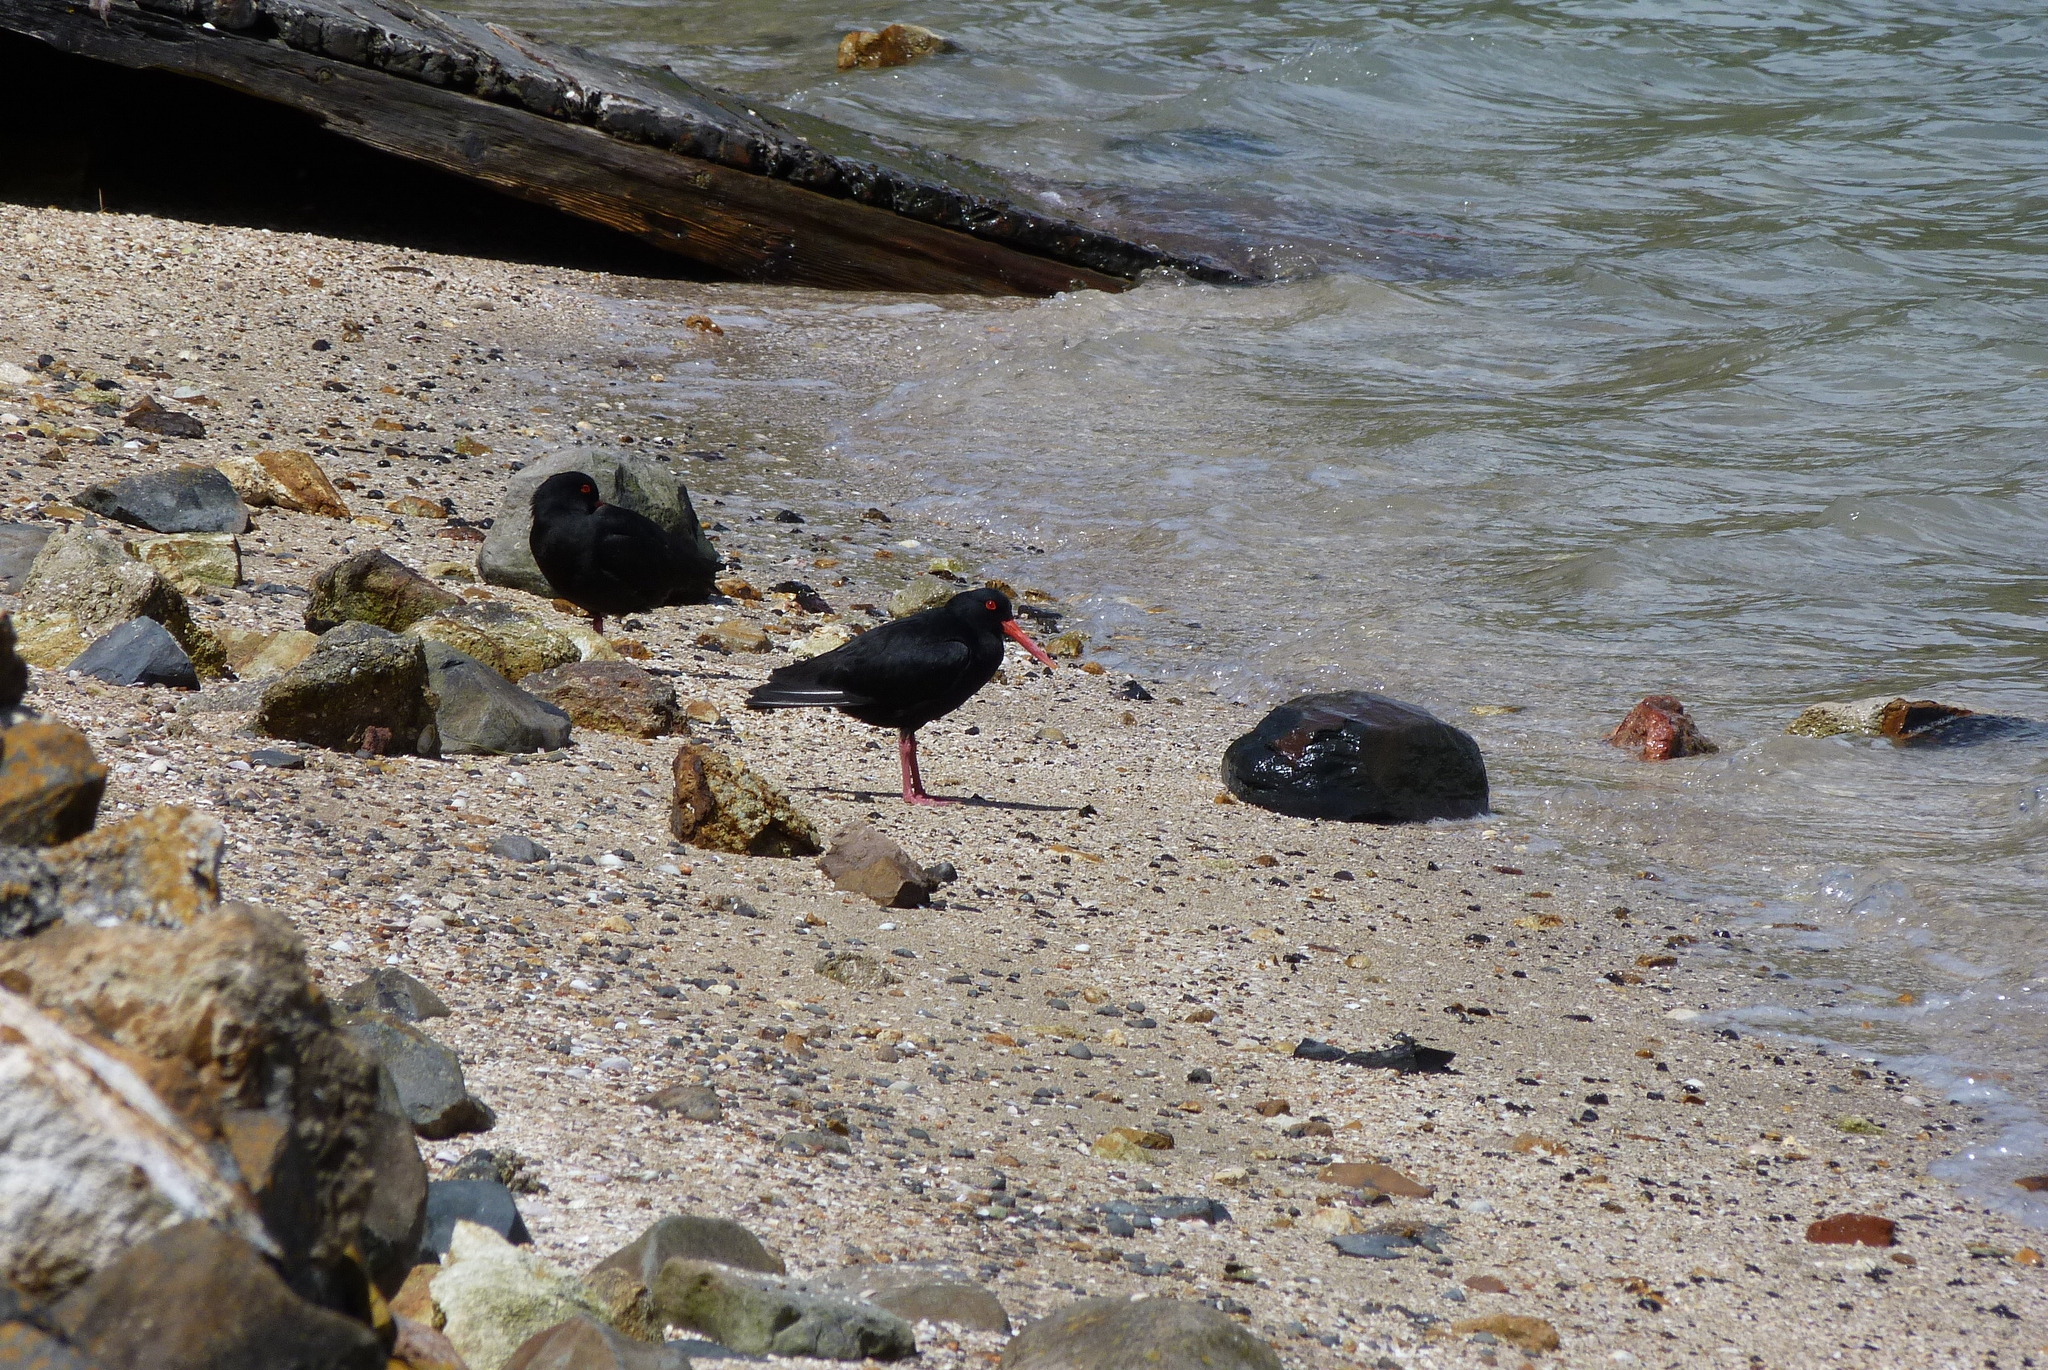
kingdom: Animalia
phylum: Chordata
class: Aves
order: Charadriiformes
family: Haematopodidae
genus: Haematopus
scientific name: Haematopus unicolor
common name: Variable oystercatcher
